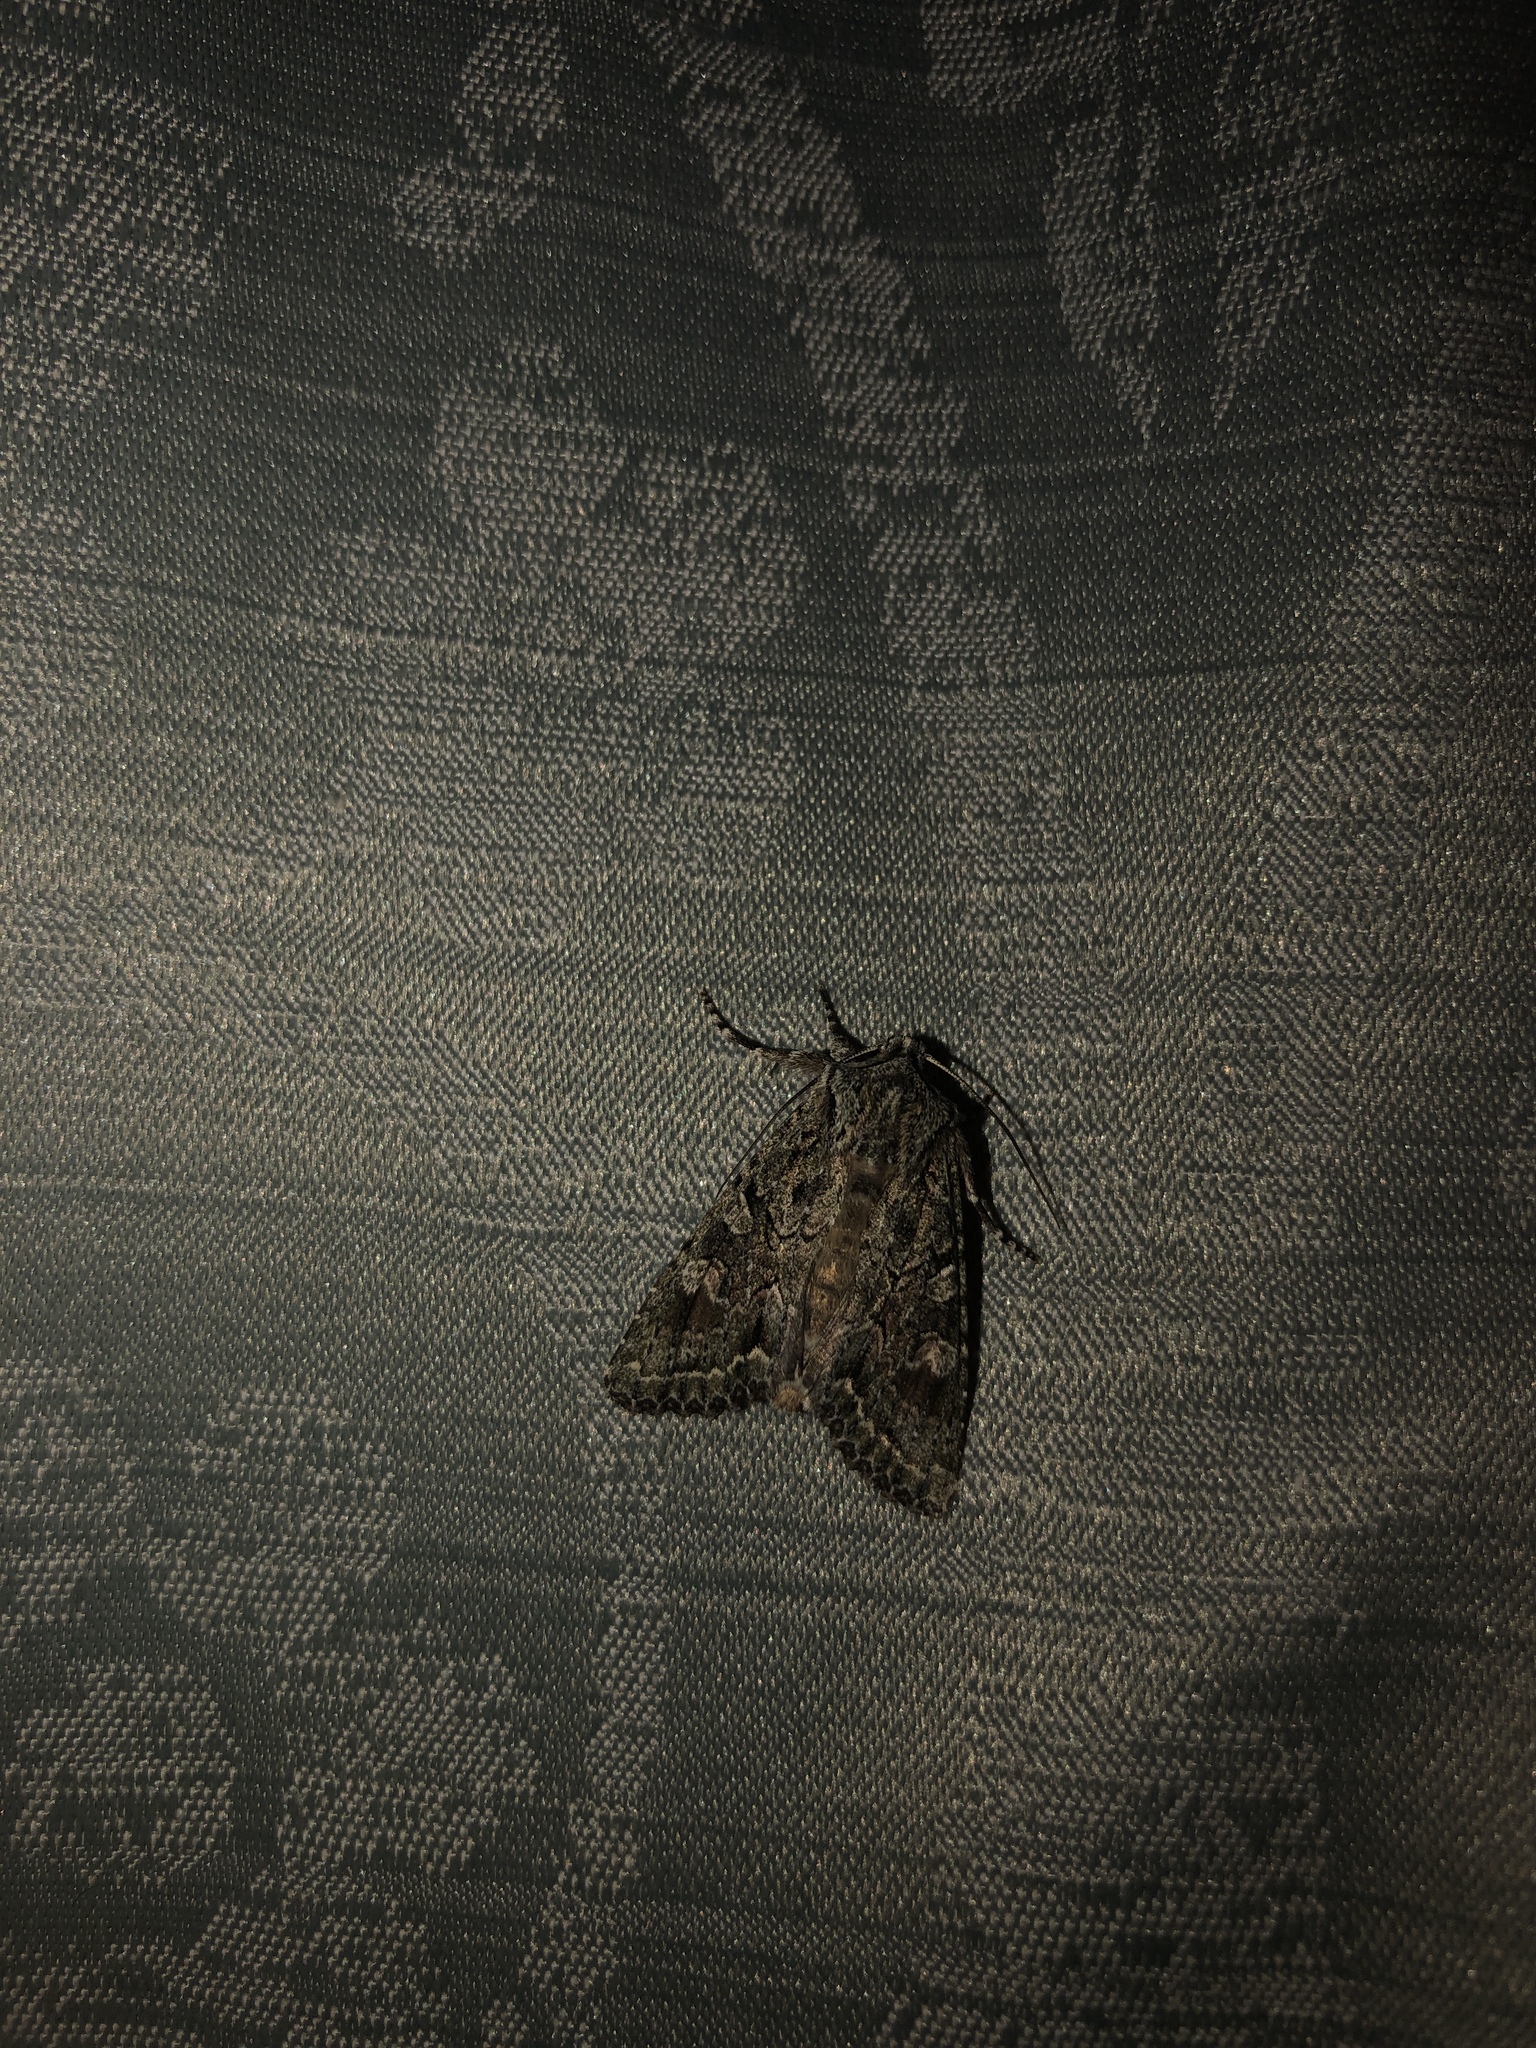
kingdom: Animalia
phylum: Arthropoda
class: Insecta
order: Lepidoptera
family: Noctuidae
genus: Ichneutica
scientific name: Ichneutica mutans
